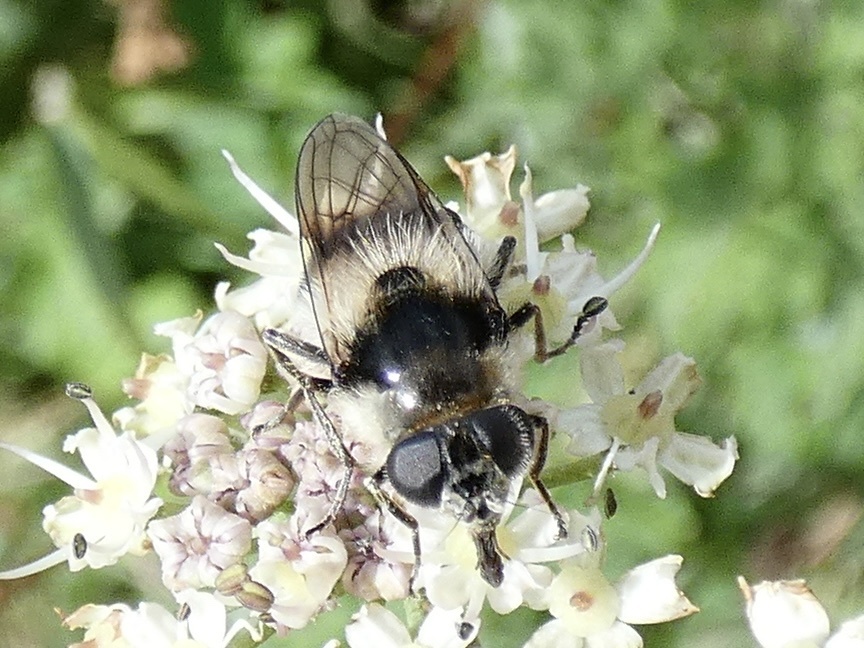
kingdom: Animalia
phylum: Arthropoda
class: Insecta
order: Diptera
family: Syrphidae
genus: Cheilosia
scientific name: Cheilosia illustrata
